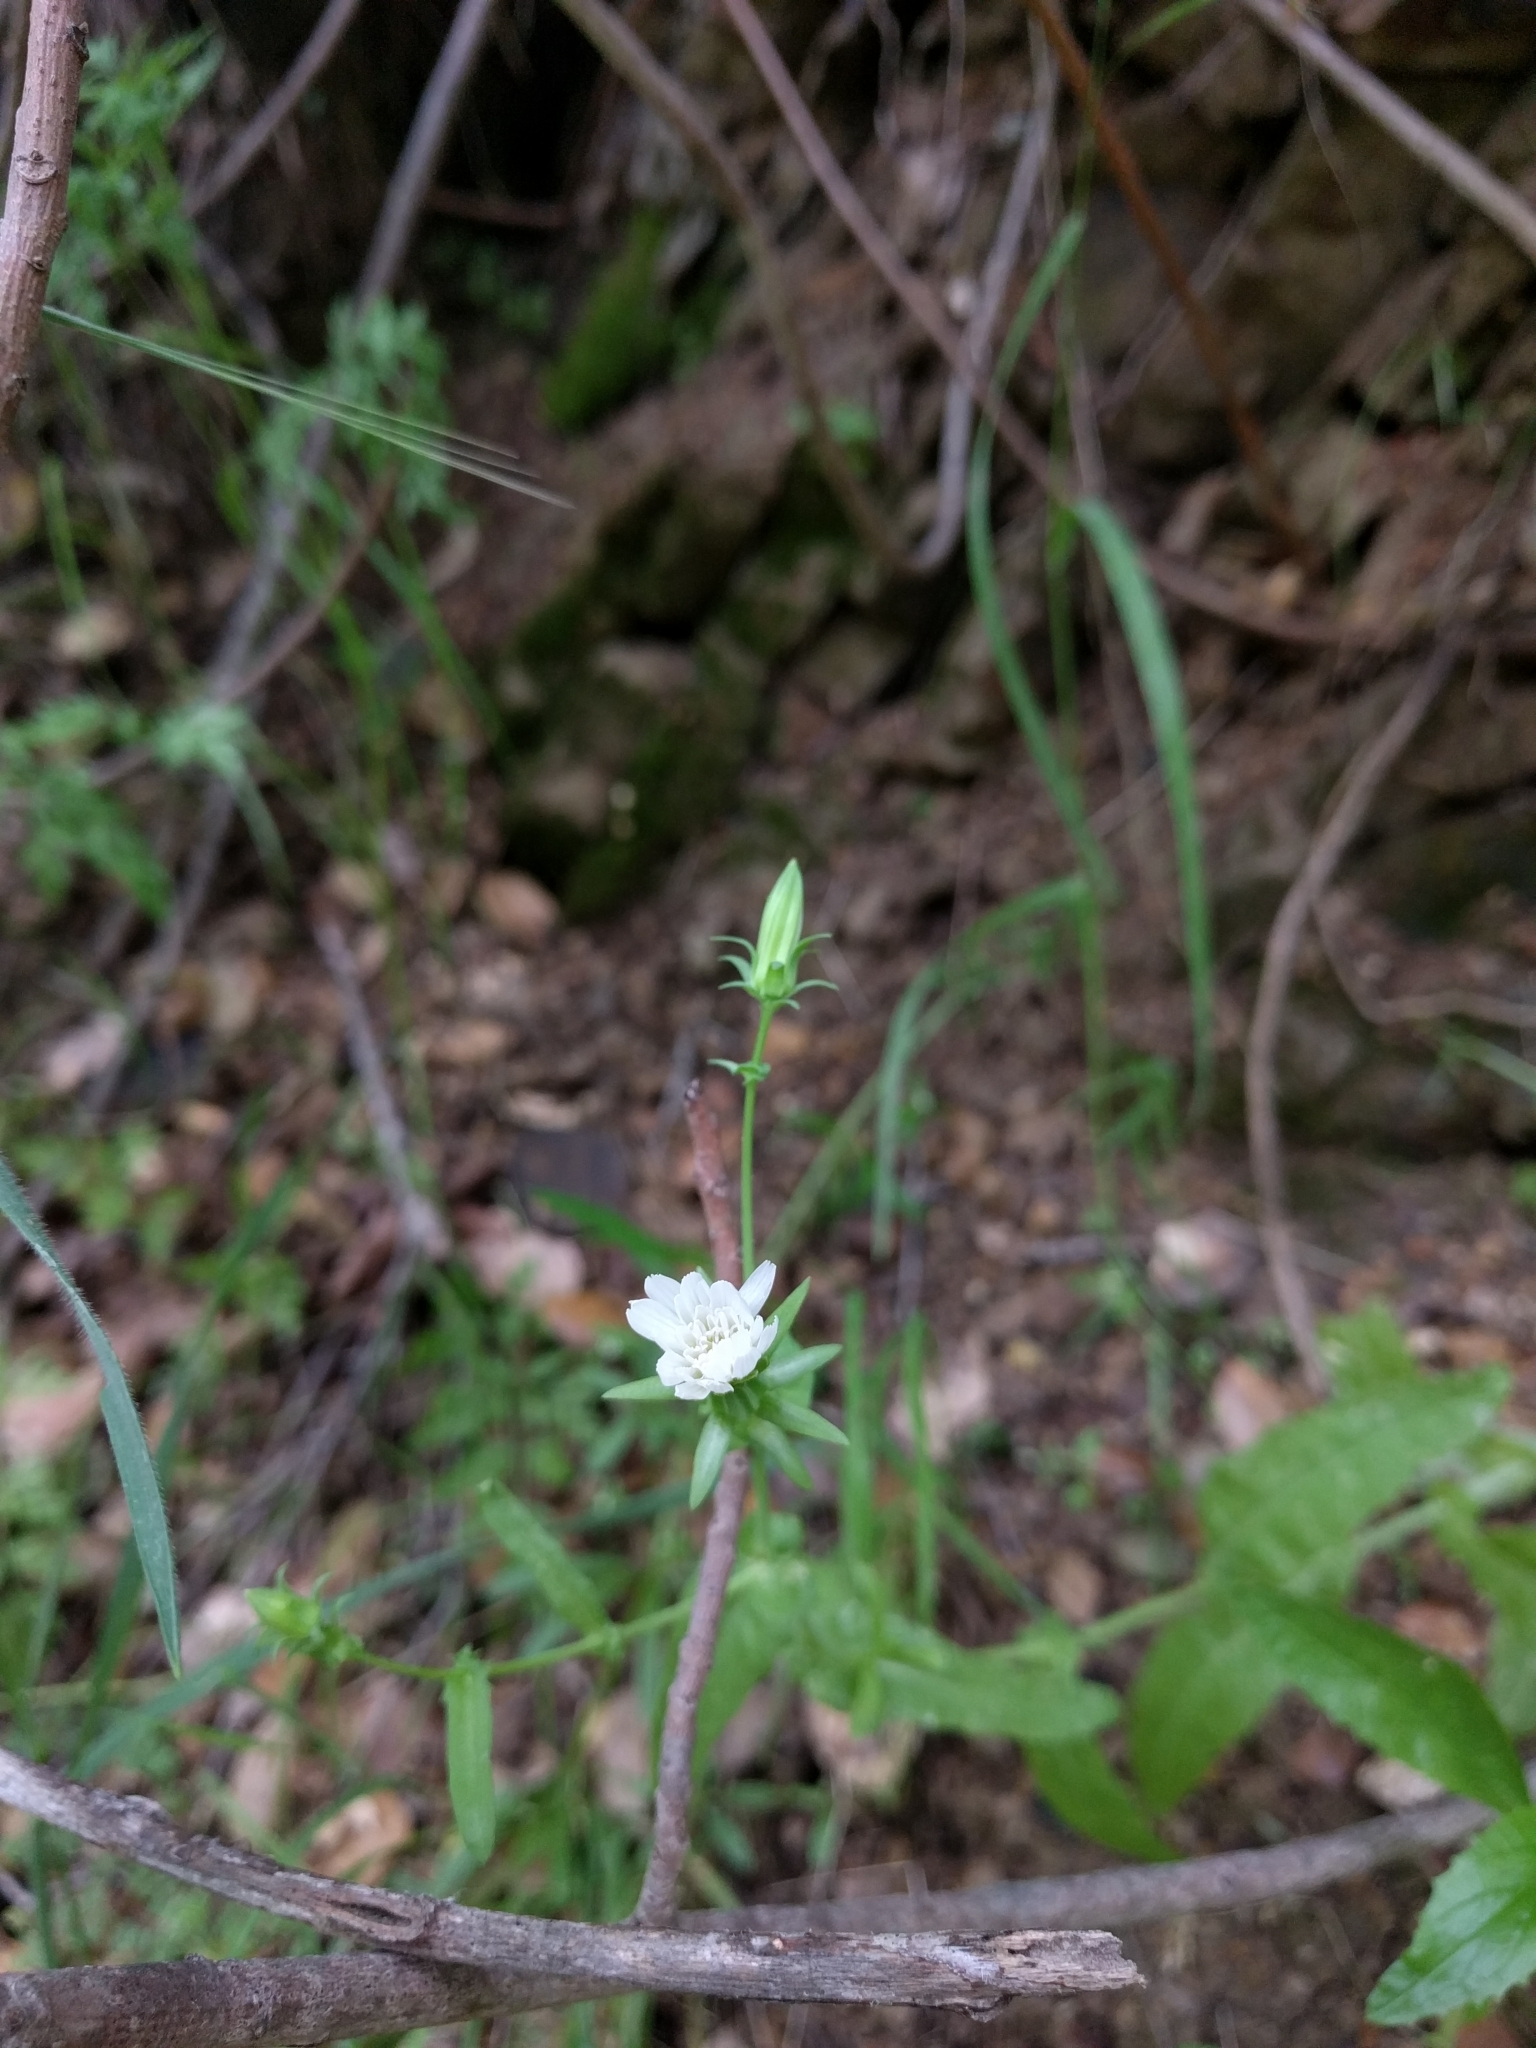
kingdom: Plantae
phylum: Tracheophyta
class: Magnoliopsida
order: Asterales
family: Asteraceae
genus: Rafinesquia
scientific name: Rafinesquia californica
